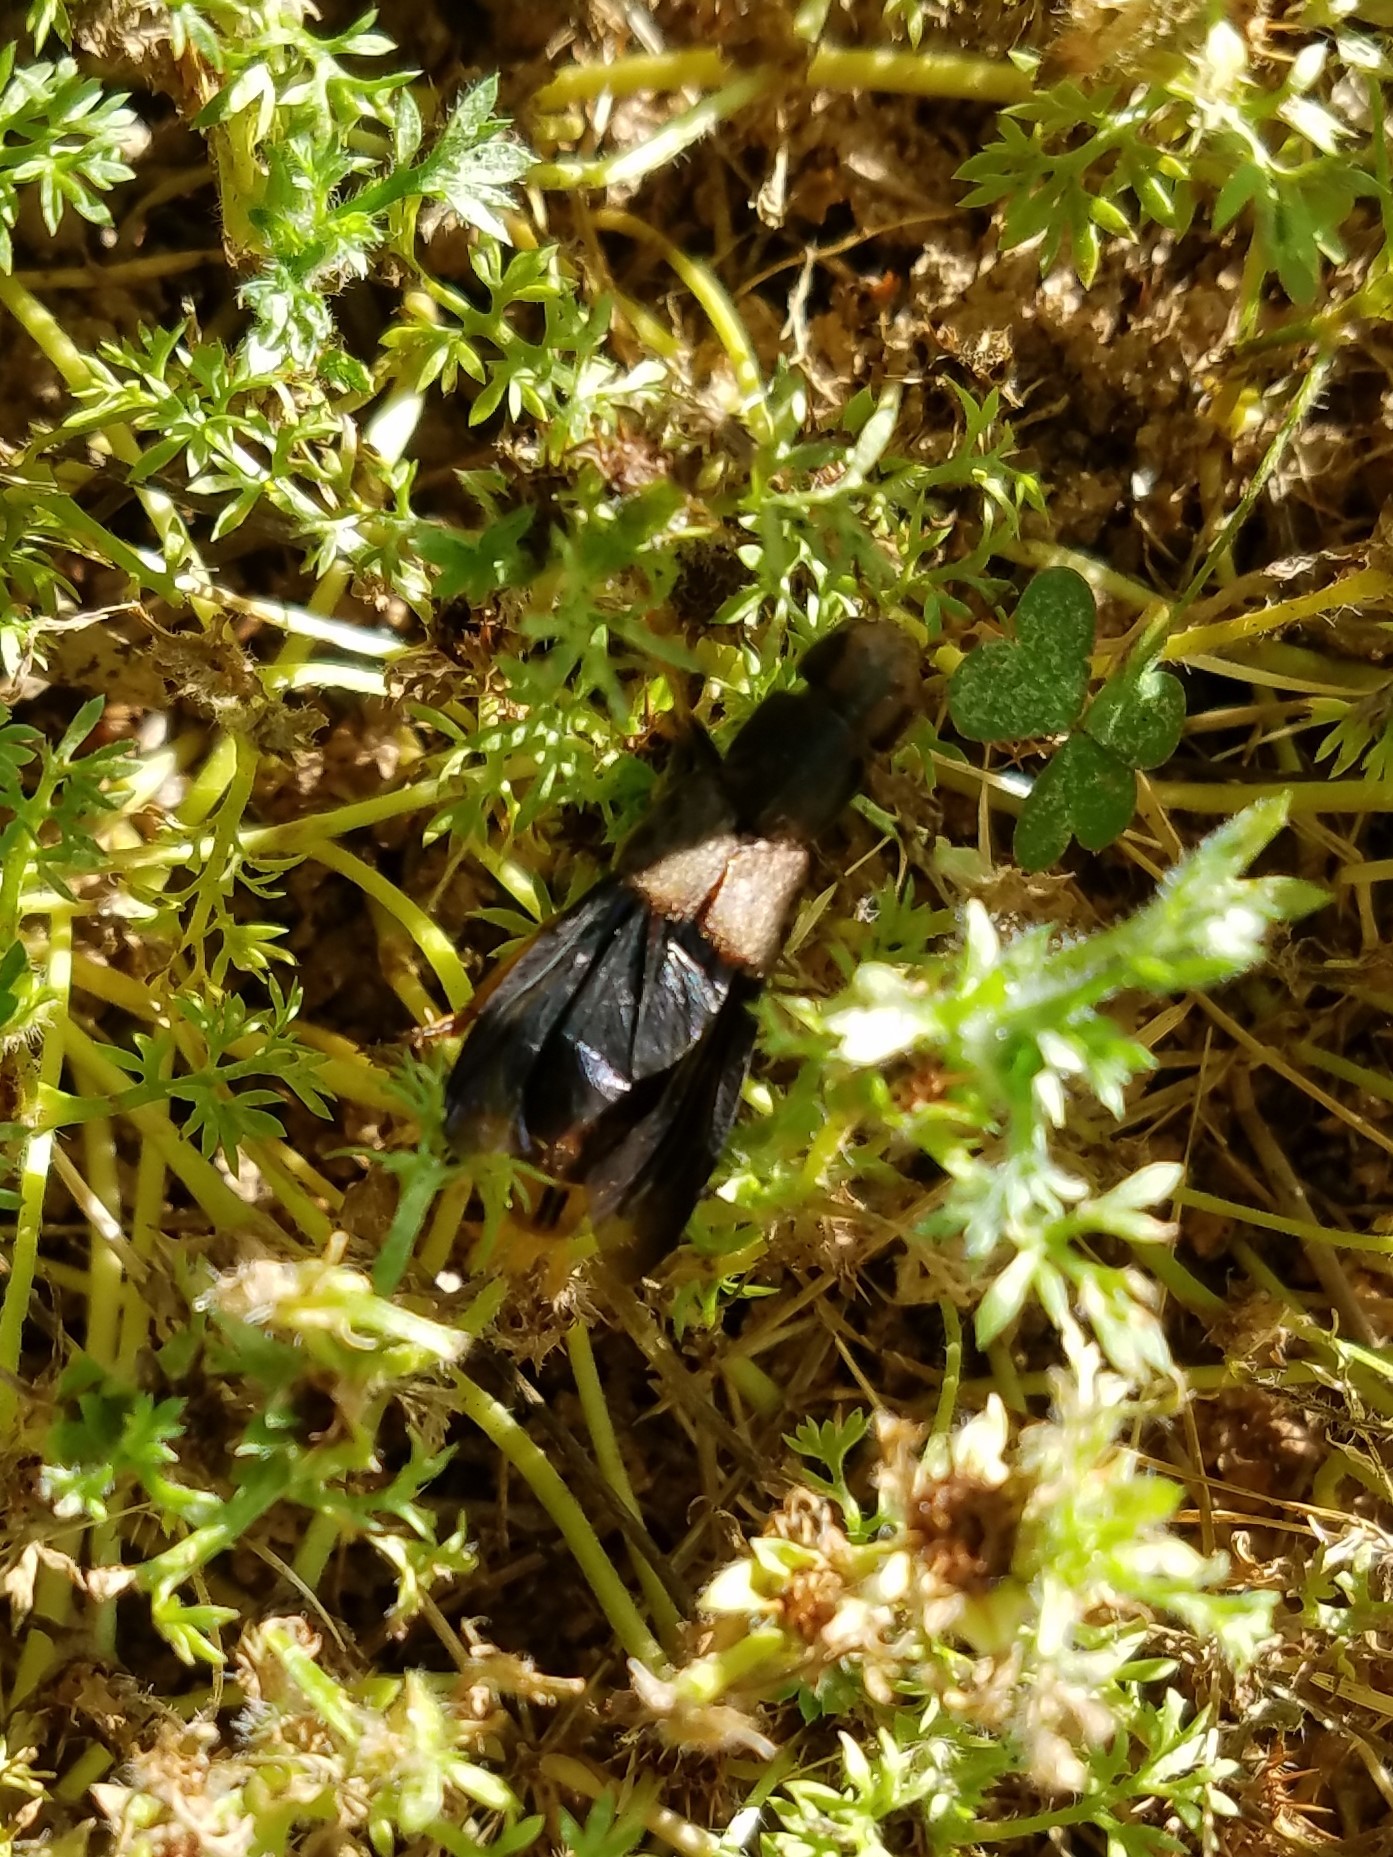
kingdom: Animalia
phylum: Arthropoda
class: Insecta
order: Coleoptera
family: Staphylinidae
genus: Platydracus
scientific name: Platydracus maculosus
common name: Brown rove beetle
